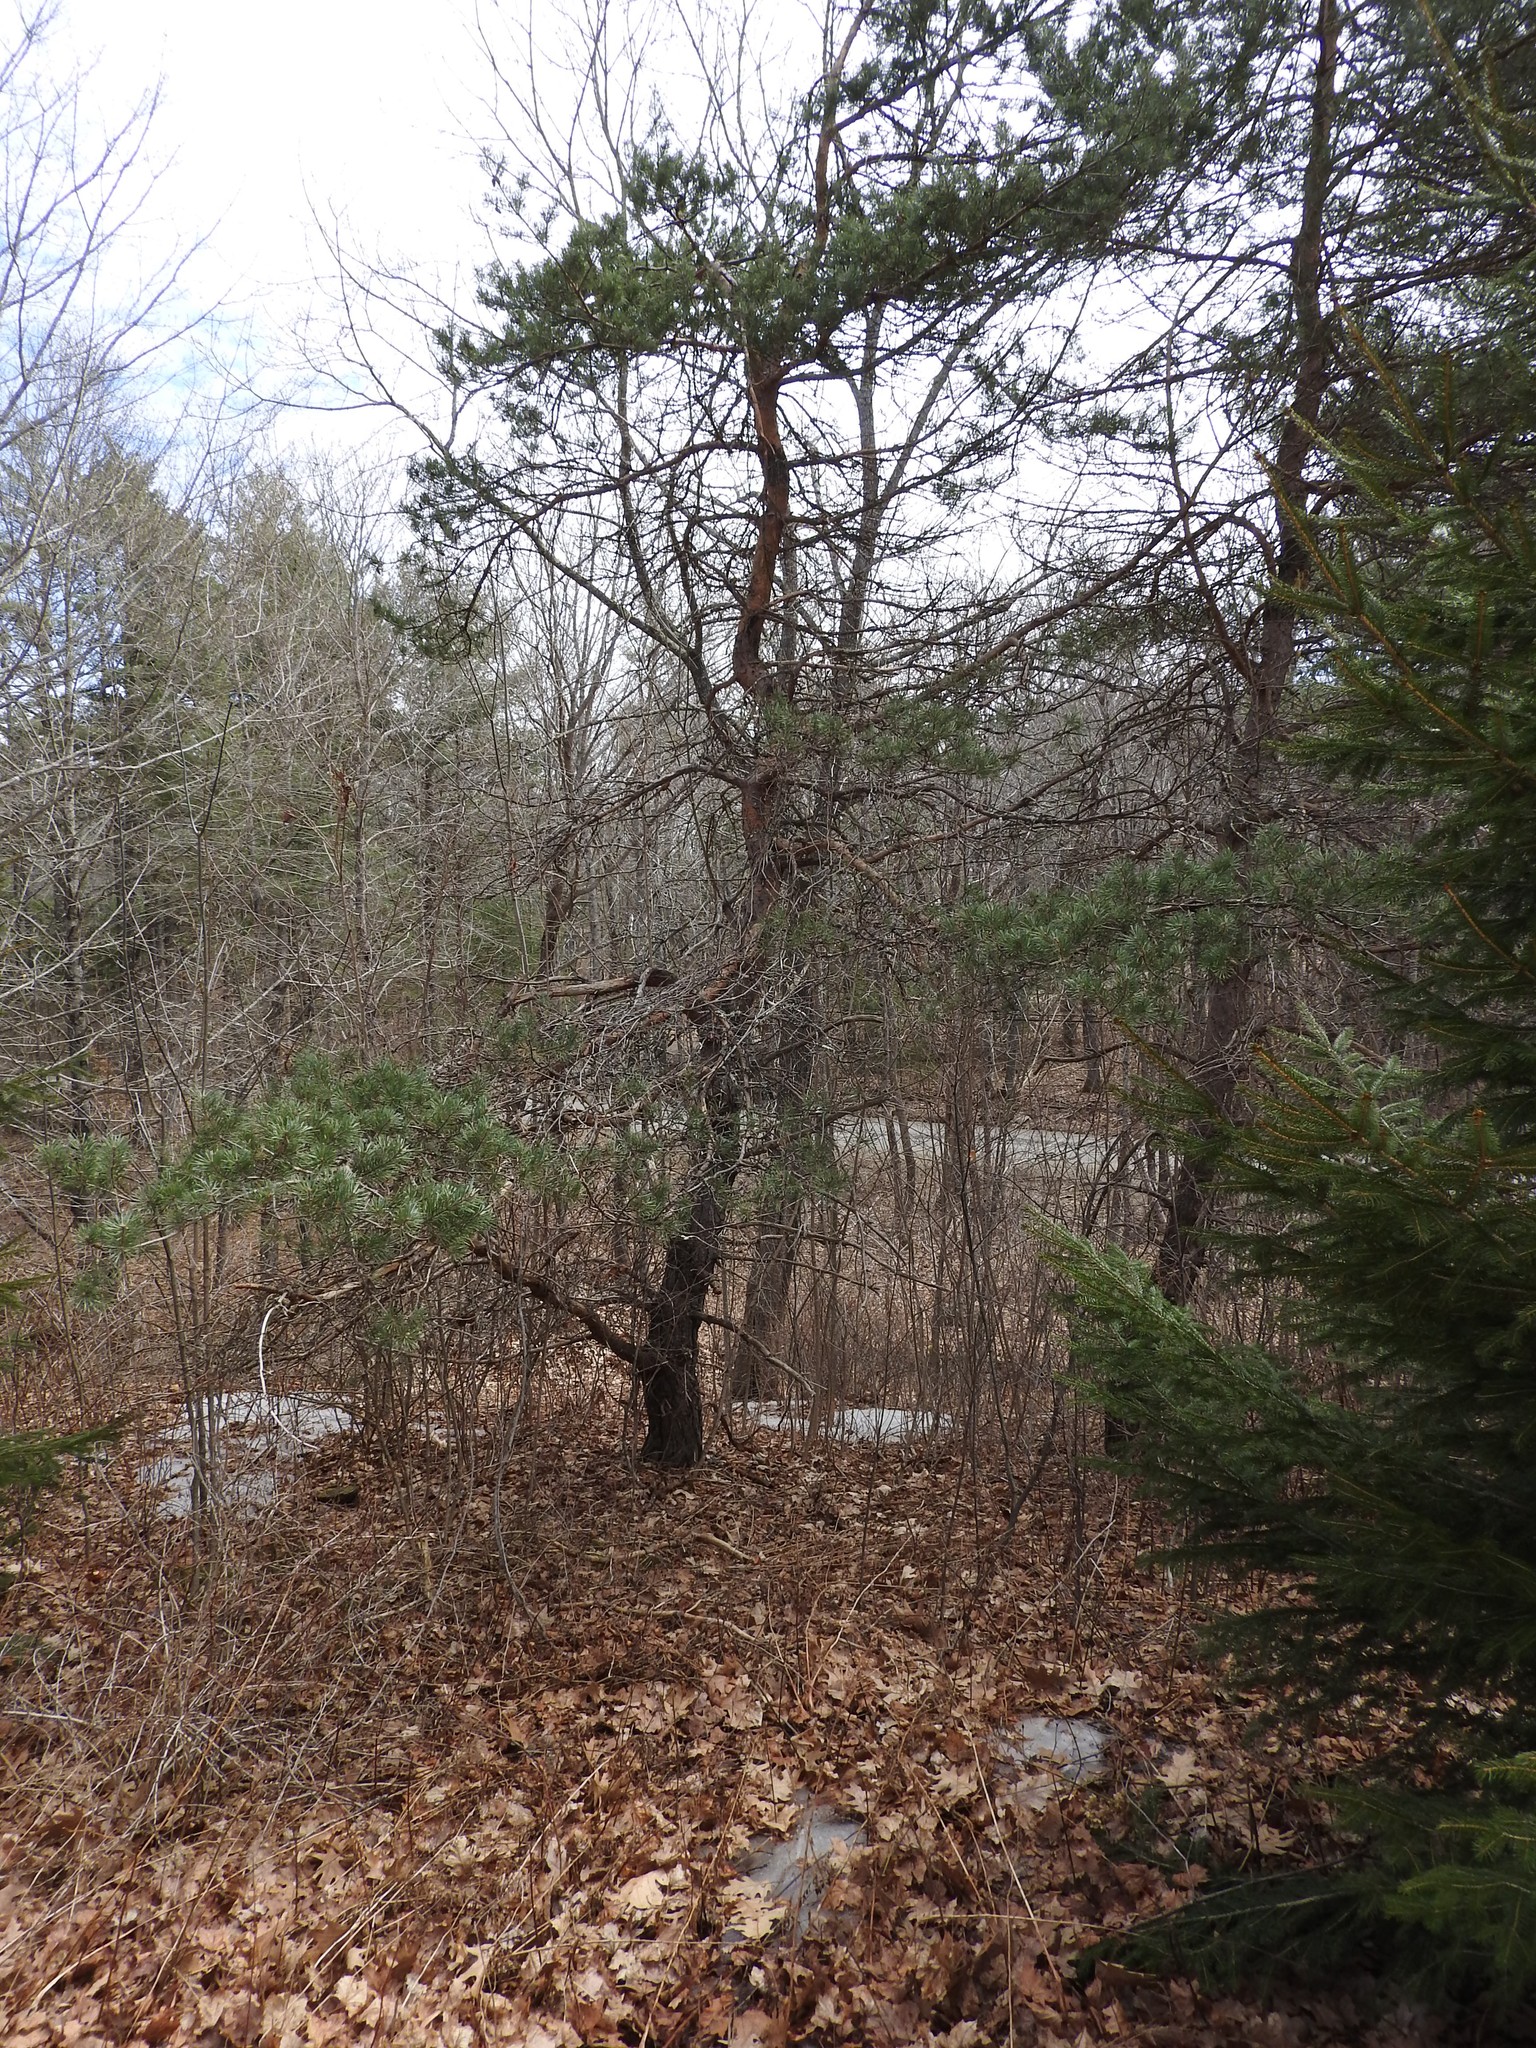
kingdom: Plantae
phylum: Tracheophyta
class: Pinopsida
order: Pinales
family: Pinaceae
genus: Pinus
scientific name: Pinus sylvestris
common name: Scots pine
